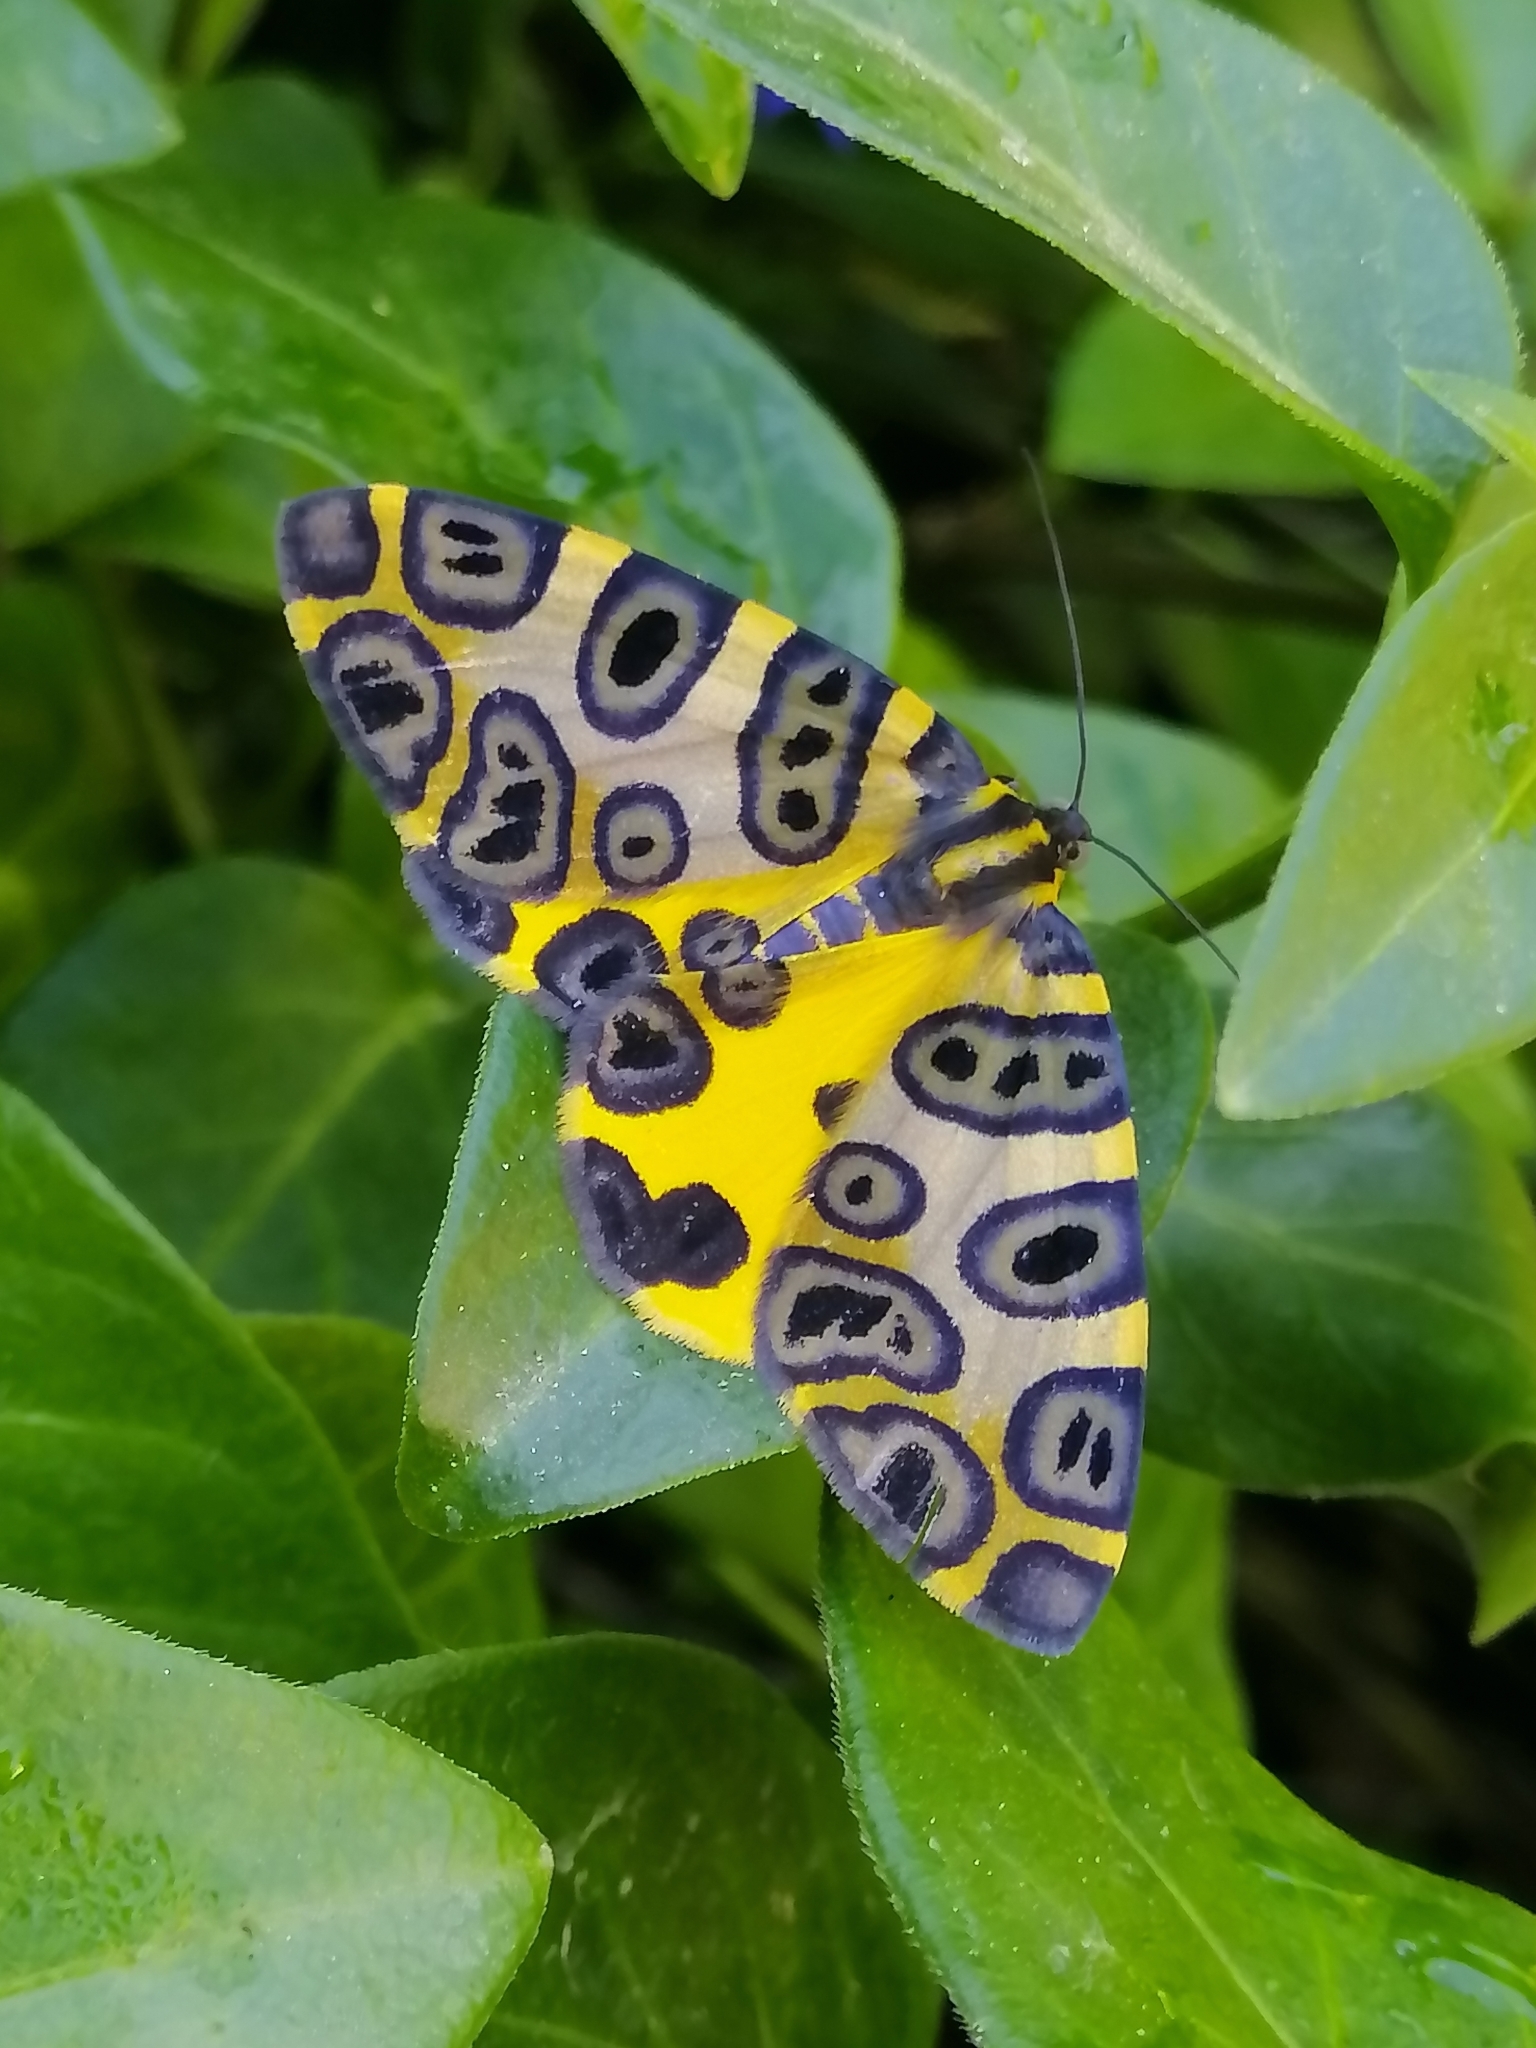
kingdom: Animalia
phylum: Arthropoda
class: Insecta
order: Lepidoptera
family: Geometridae
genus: Pantherodes
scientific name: Pantherodes unciaria
